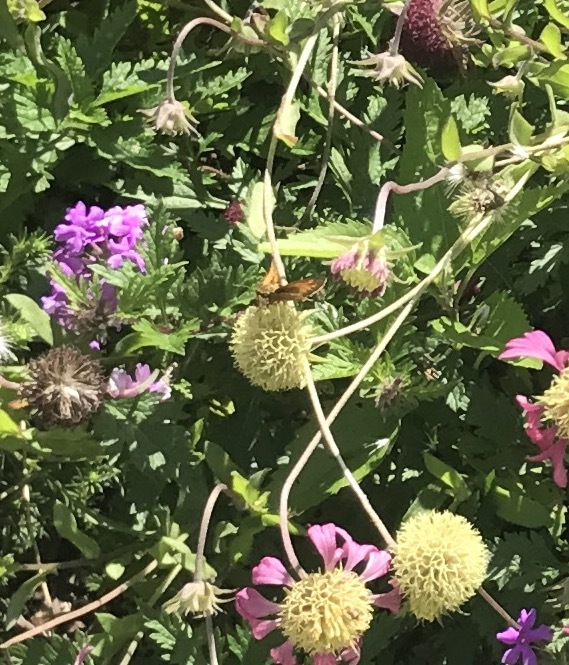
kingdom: Animalia
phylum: Arthropoda
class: Insecta
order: Lepidoptera
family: Hesperiidae
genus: Atalopedes
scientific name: Atalopedes
